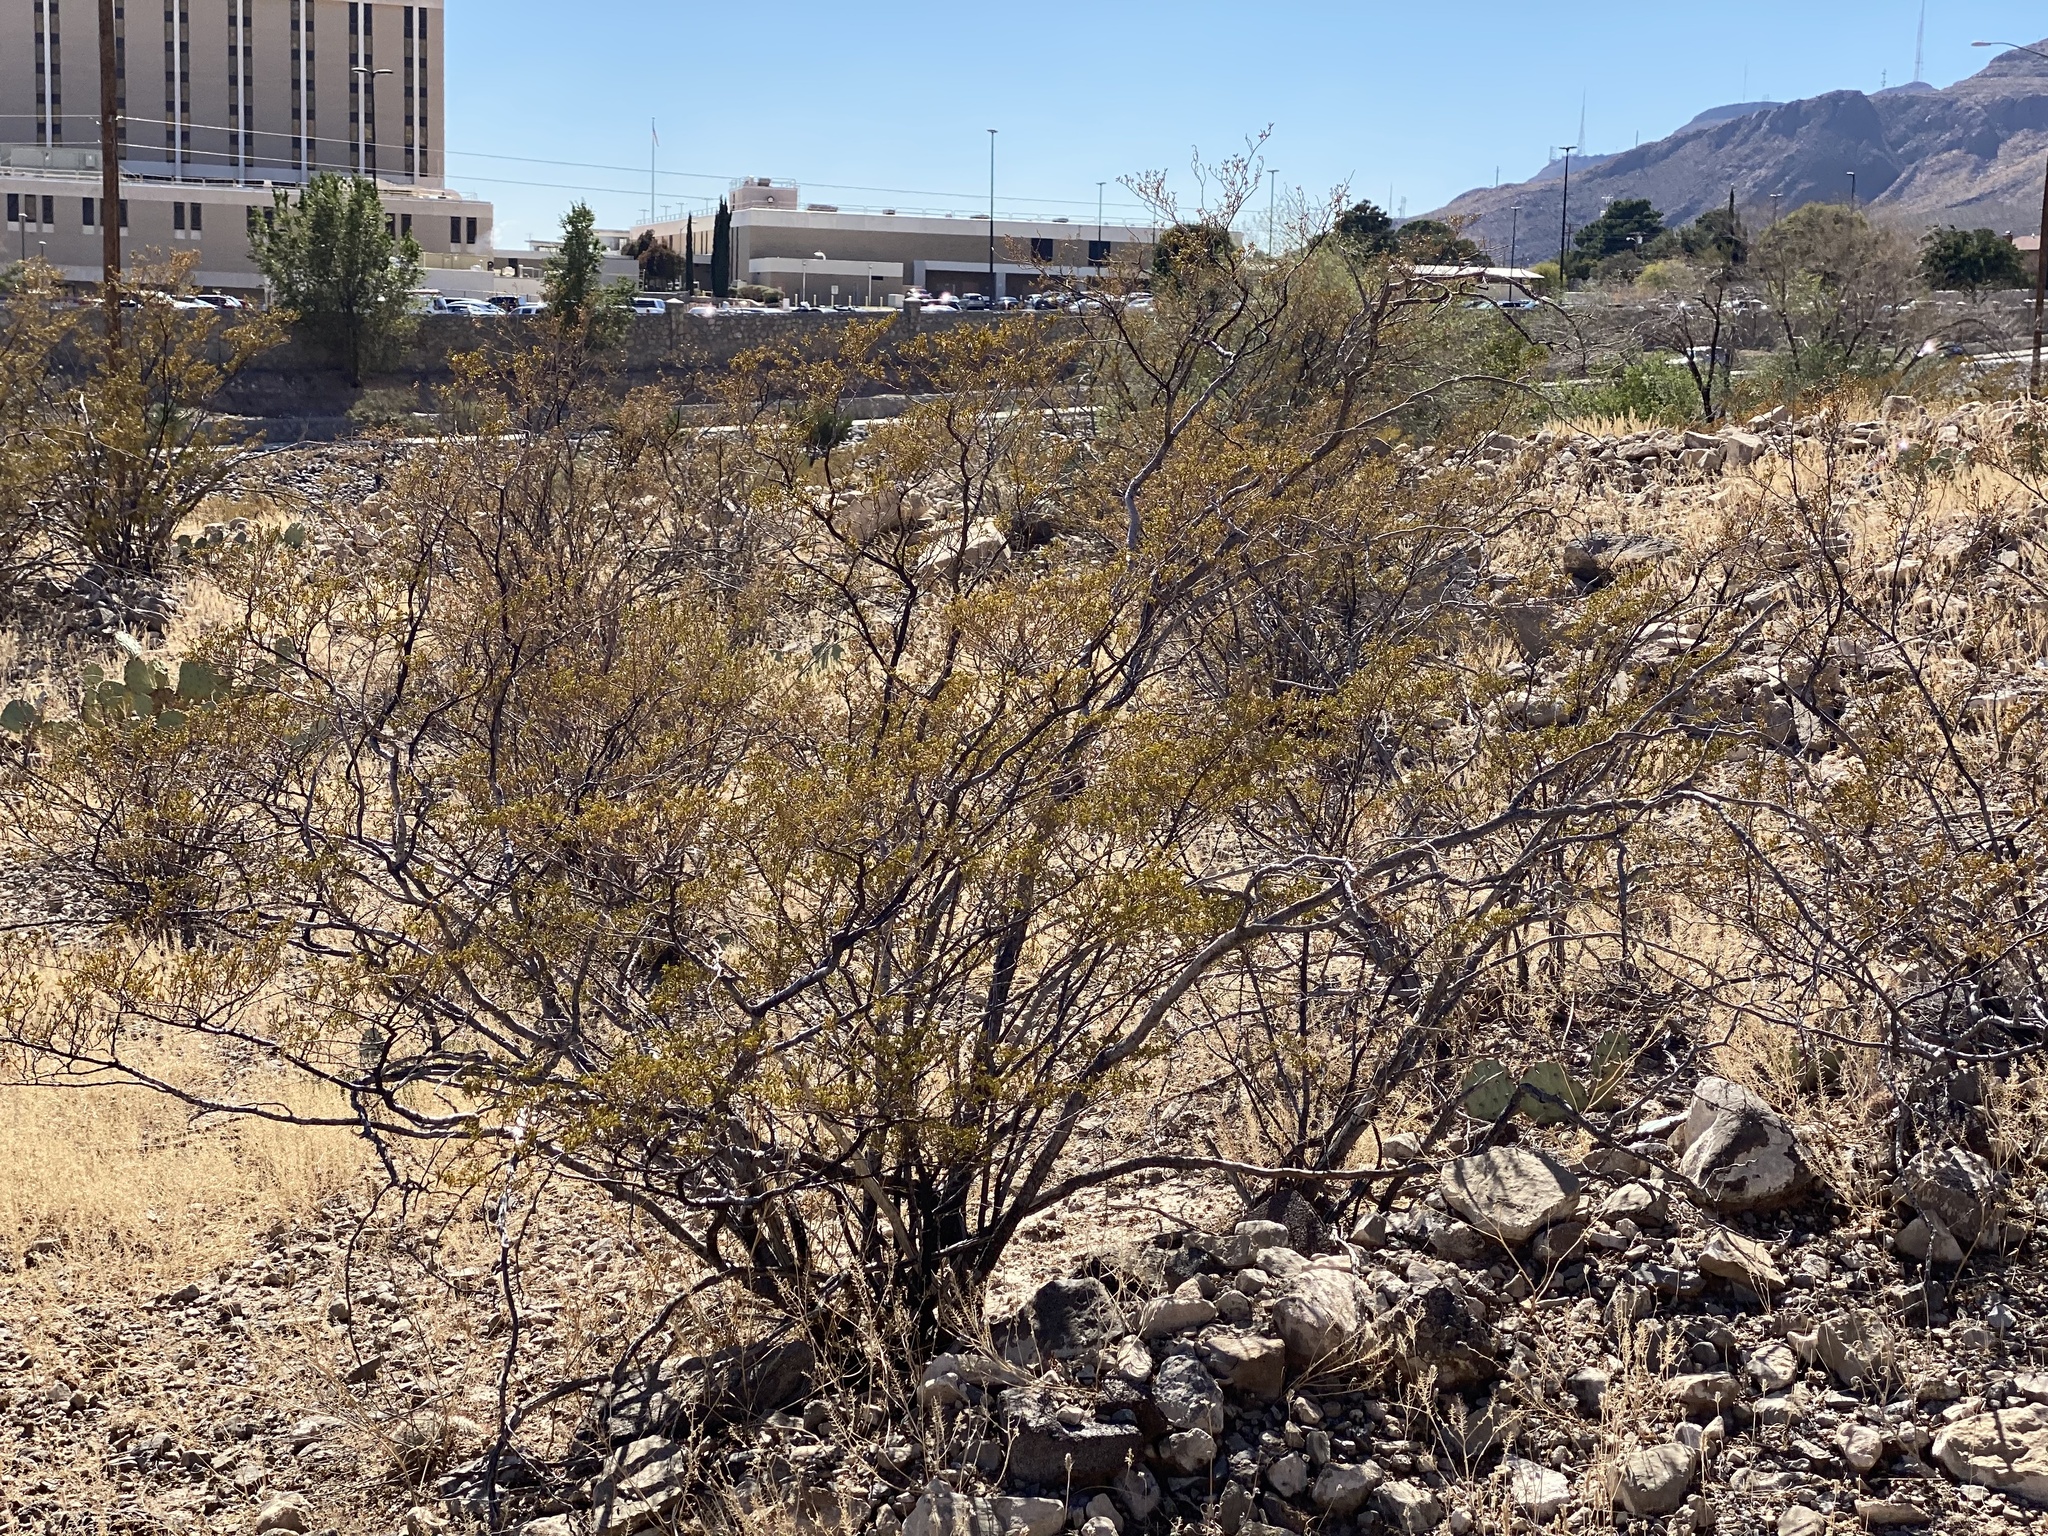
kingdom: Plantae
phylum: Tracheophyta
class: Magnoliopsida
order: Zygophyllales
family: Zygophyllaceae
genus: Larrea
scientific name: Larrea tridentata
